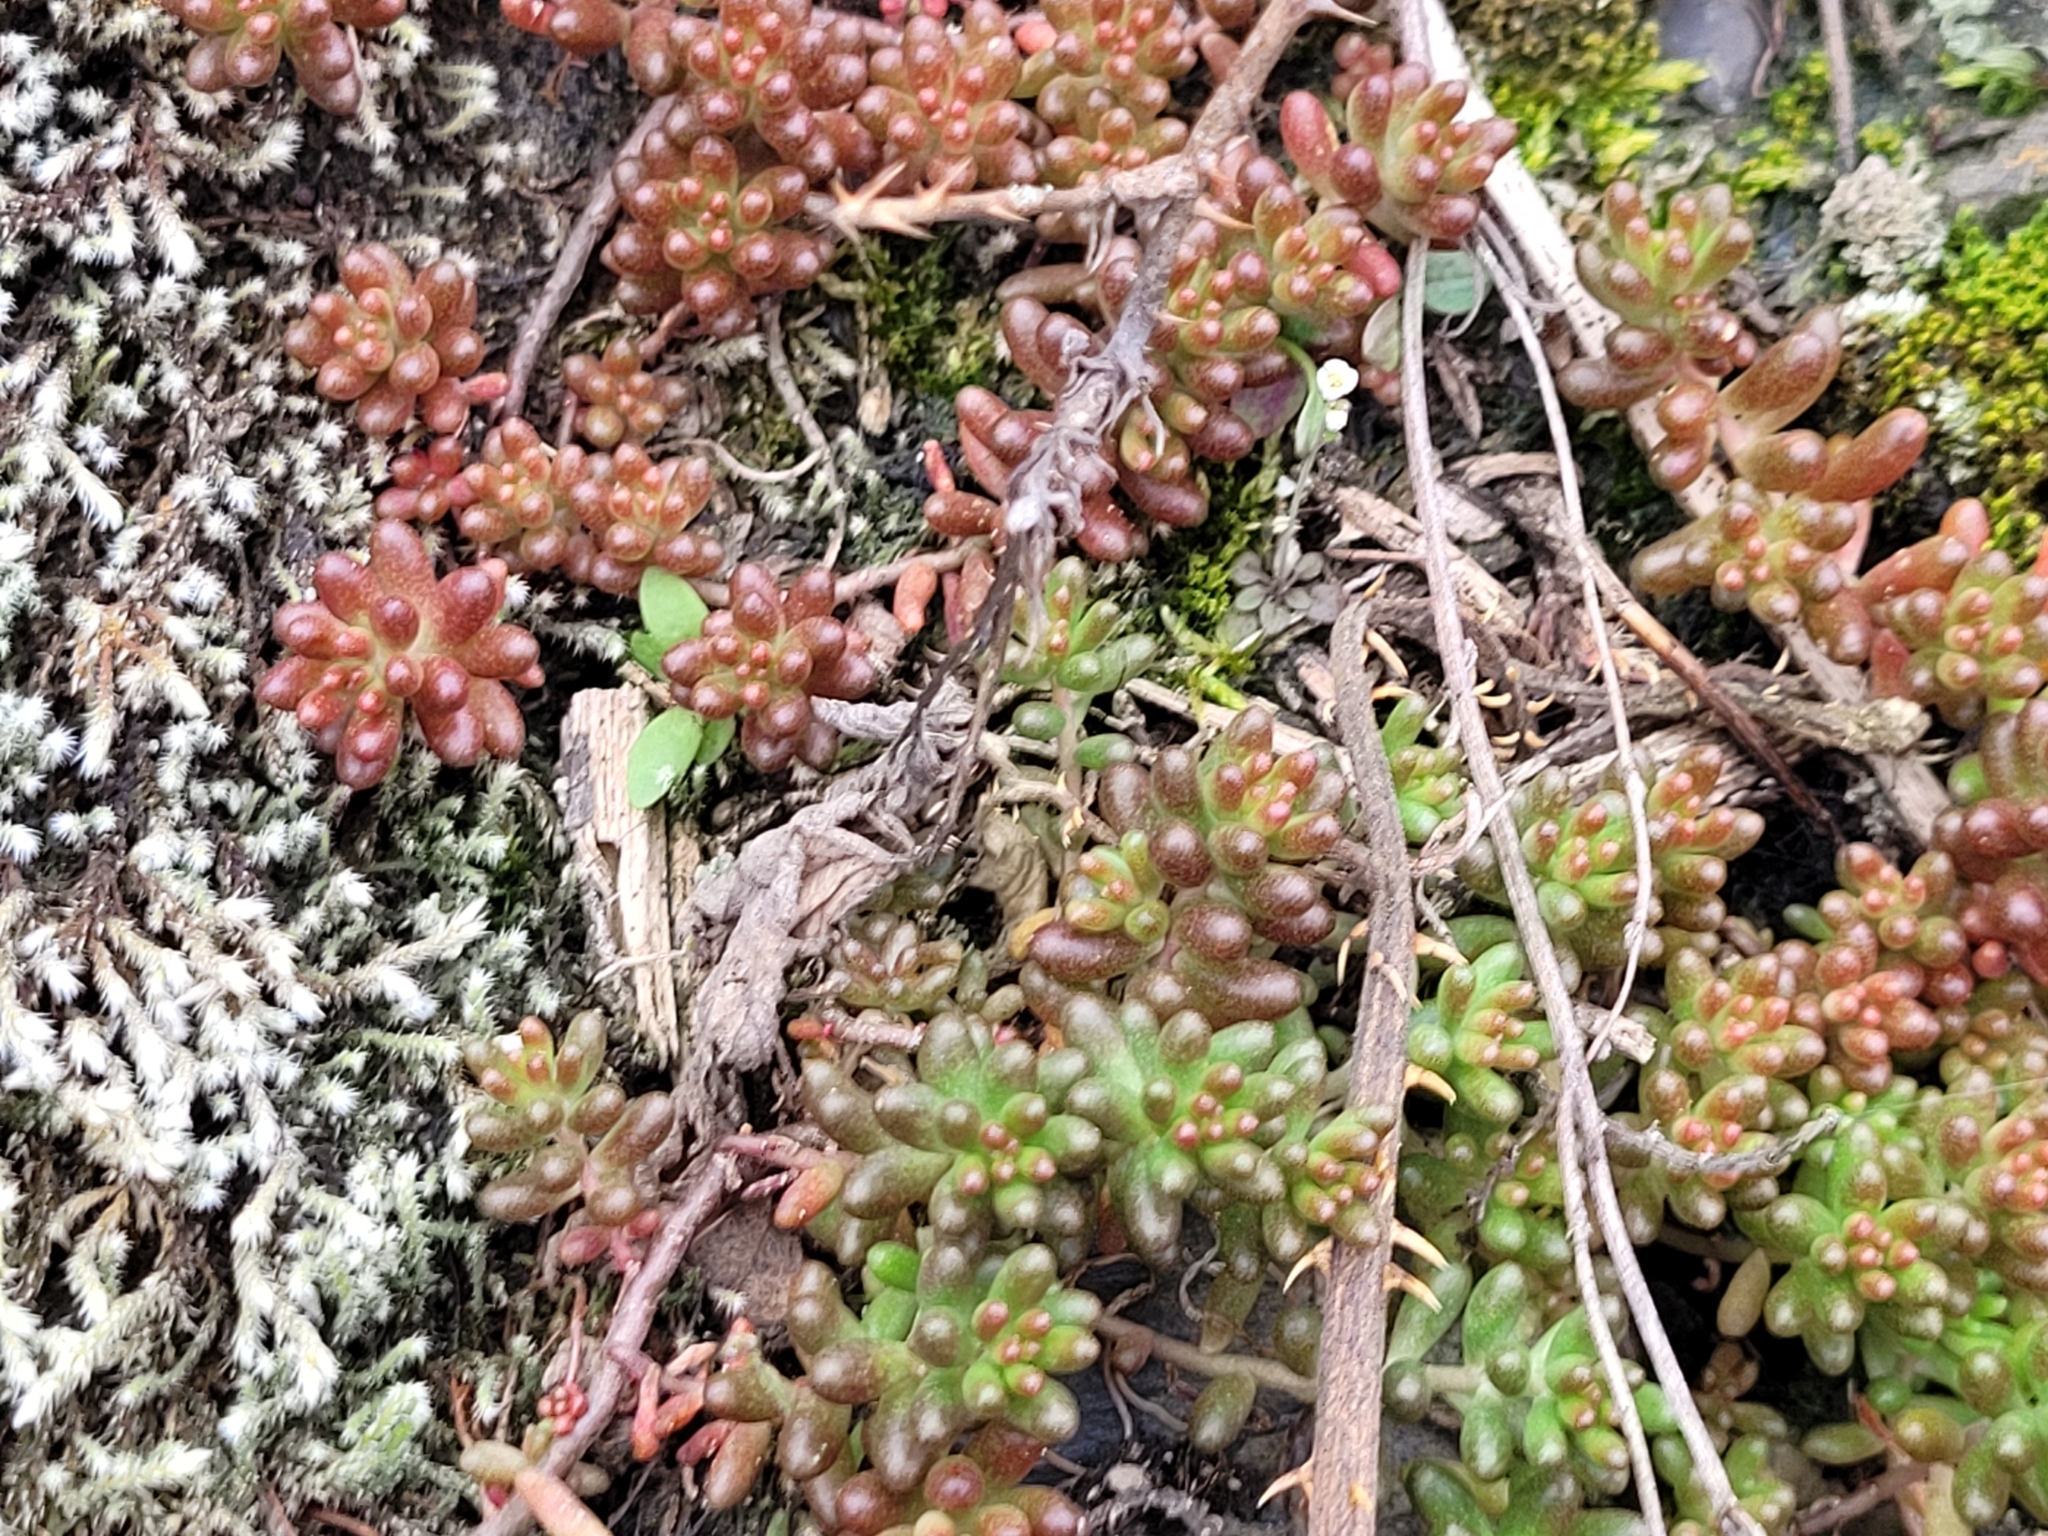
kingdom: Plantae
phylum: Tracheophyta
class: Magnoliopsida
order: Saxifragales
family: Crassulaceae
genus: Sedum
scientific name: Sedum album
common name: White stonecrop
